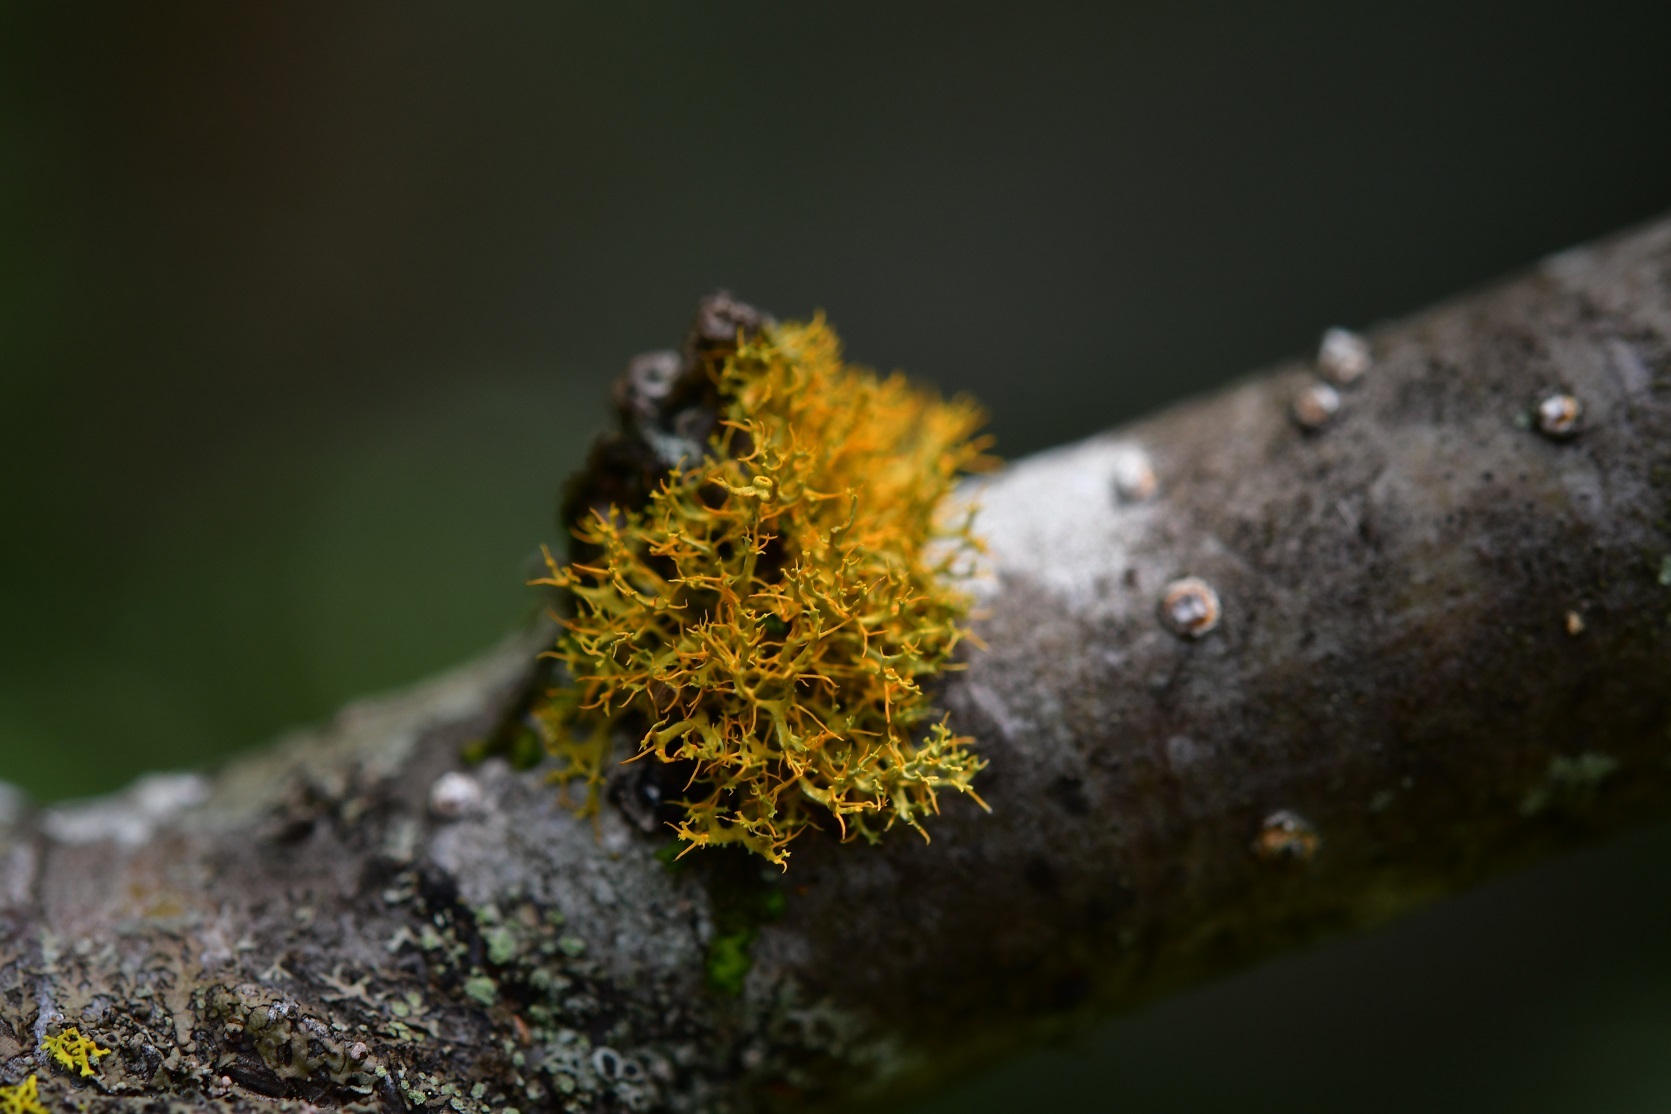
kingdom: Fungi
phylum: Ascomycota
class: Lecanoromycetes
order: Teloschistales
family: Teloschistaceae
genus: Teloschistes
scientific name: Teloschistes exilis
